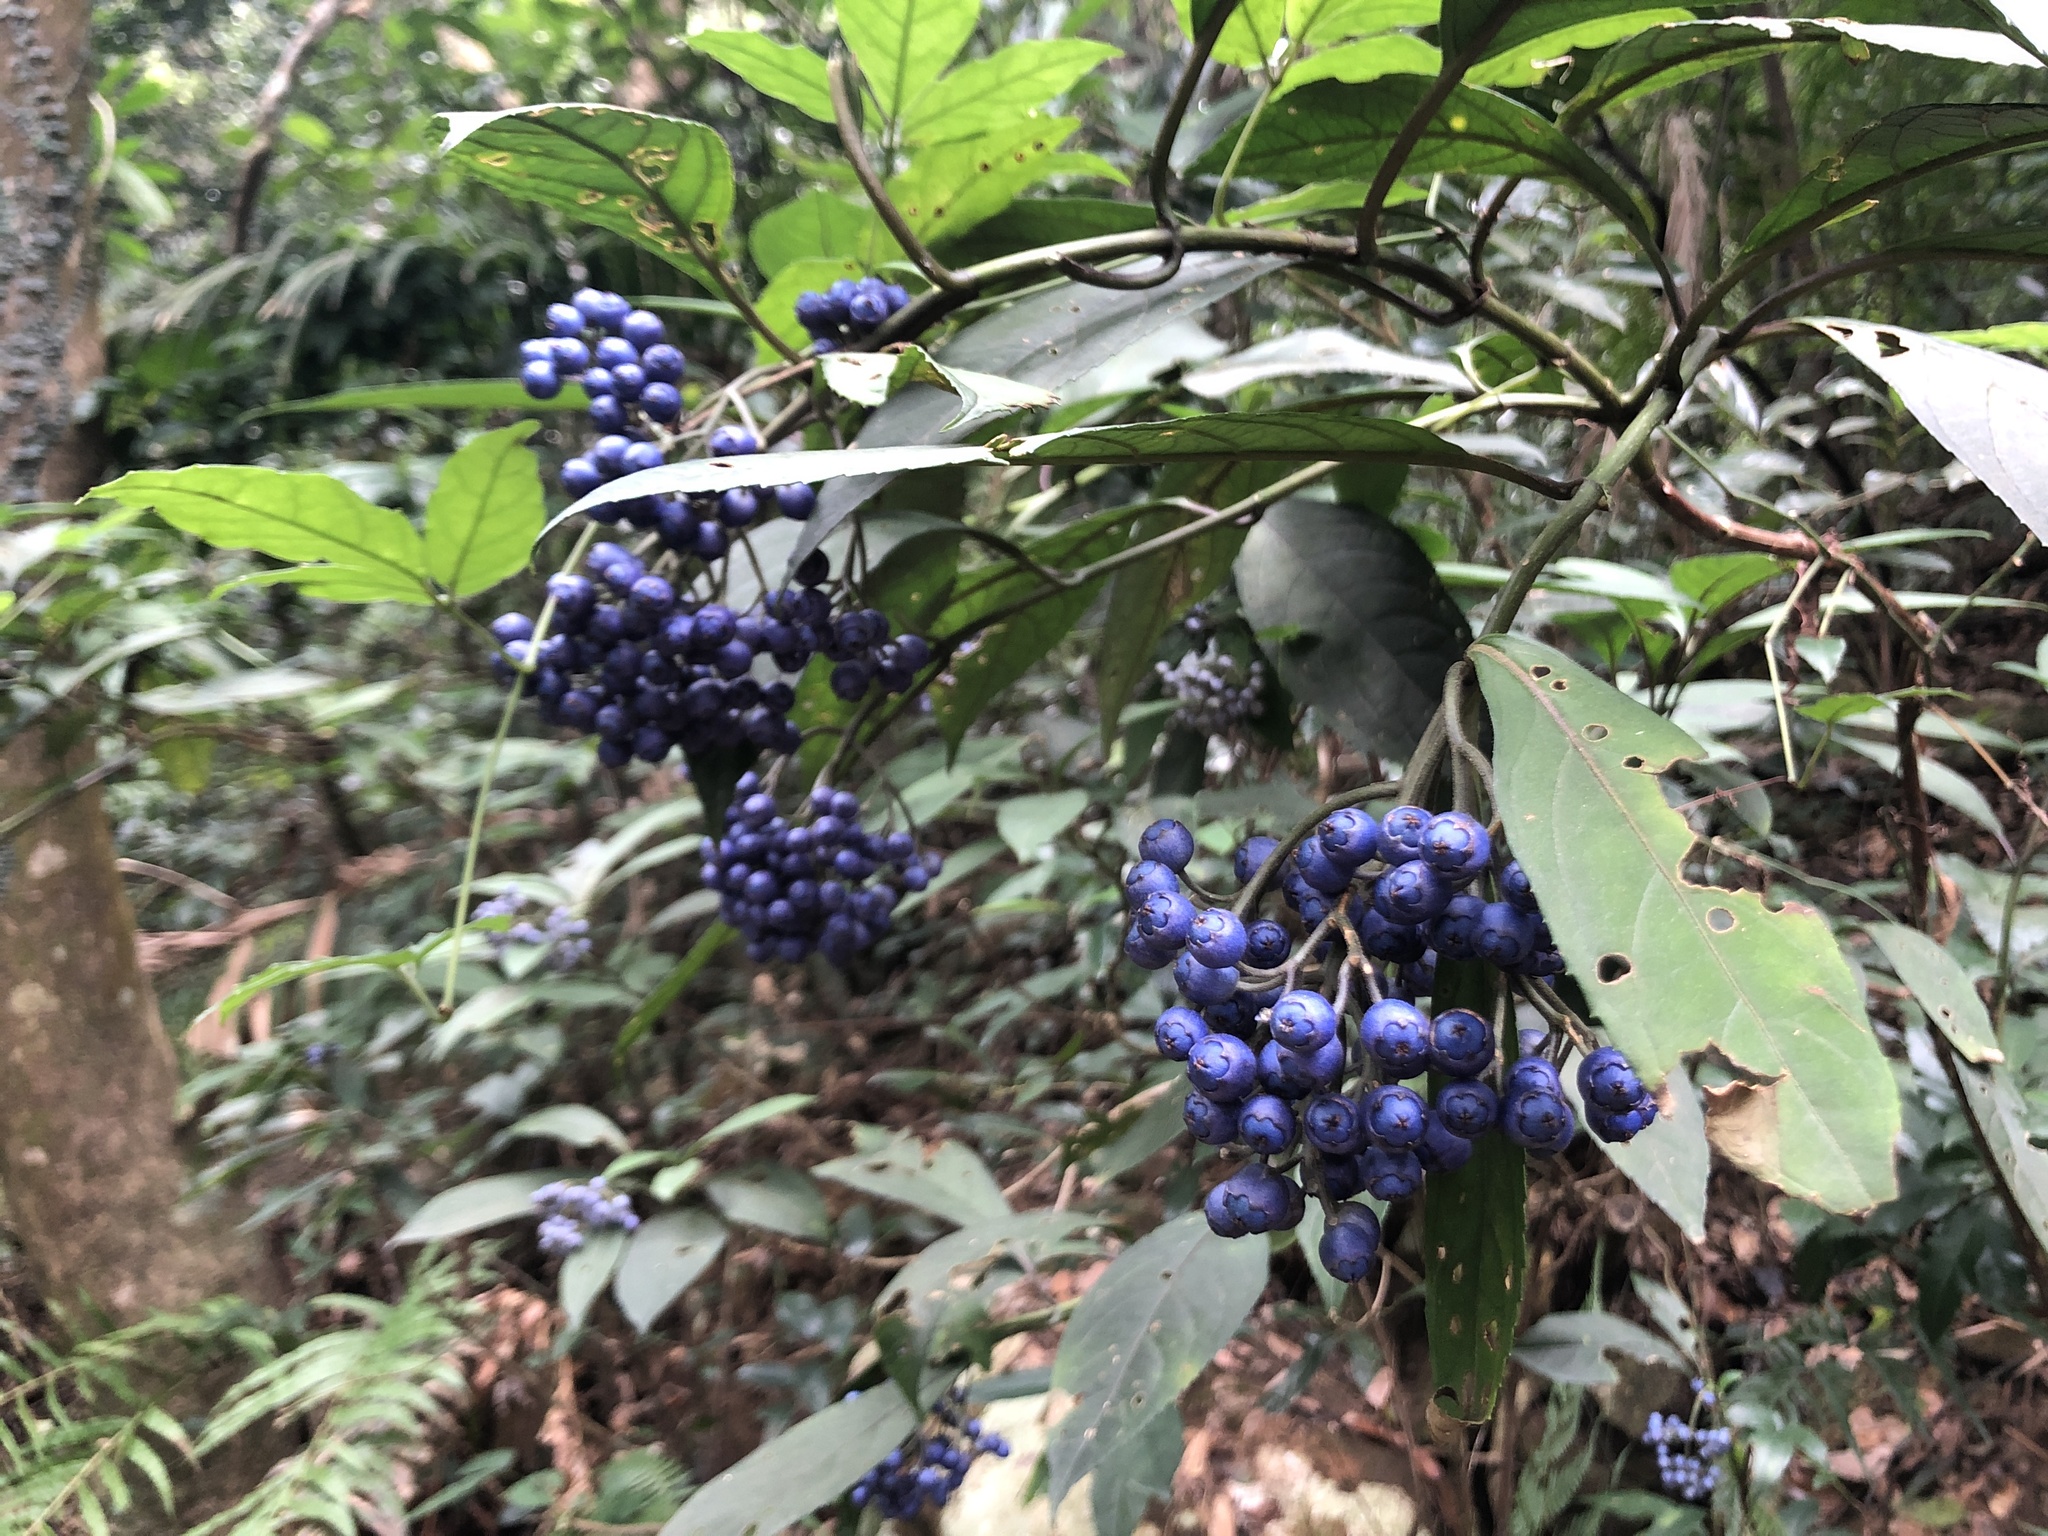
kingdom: Plantae
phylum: Tracheophyta
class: Magnoliopsida
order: Cornales
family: Hydrangeaceae
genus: Hydrangea
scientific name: Hydrangea febrifuga
